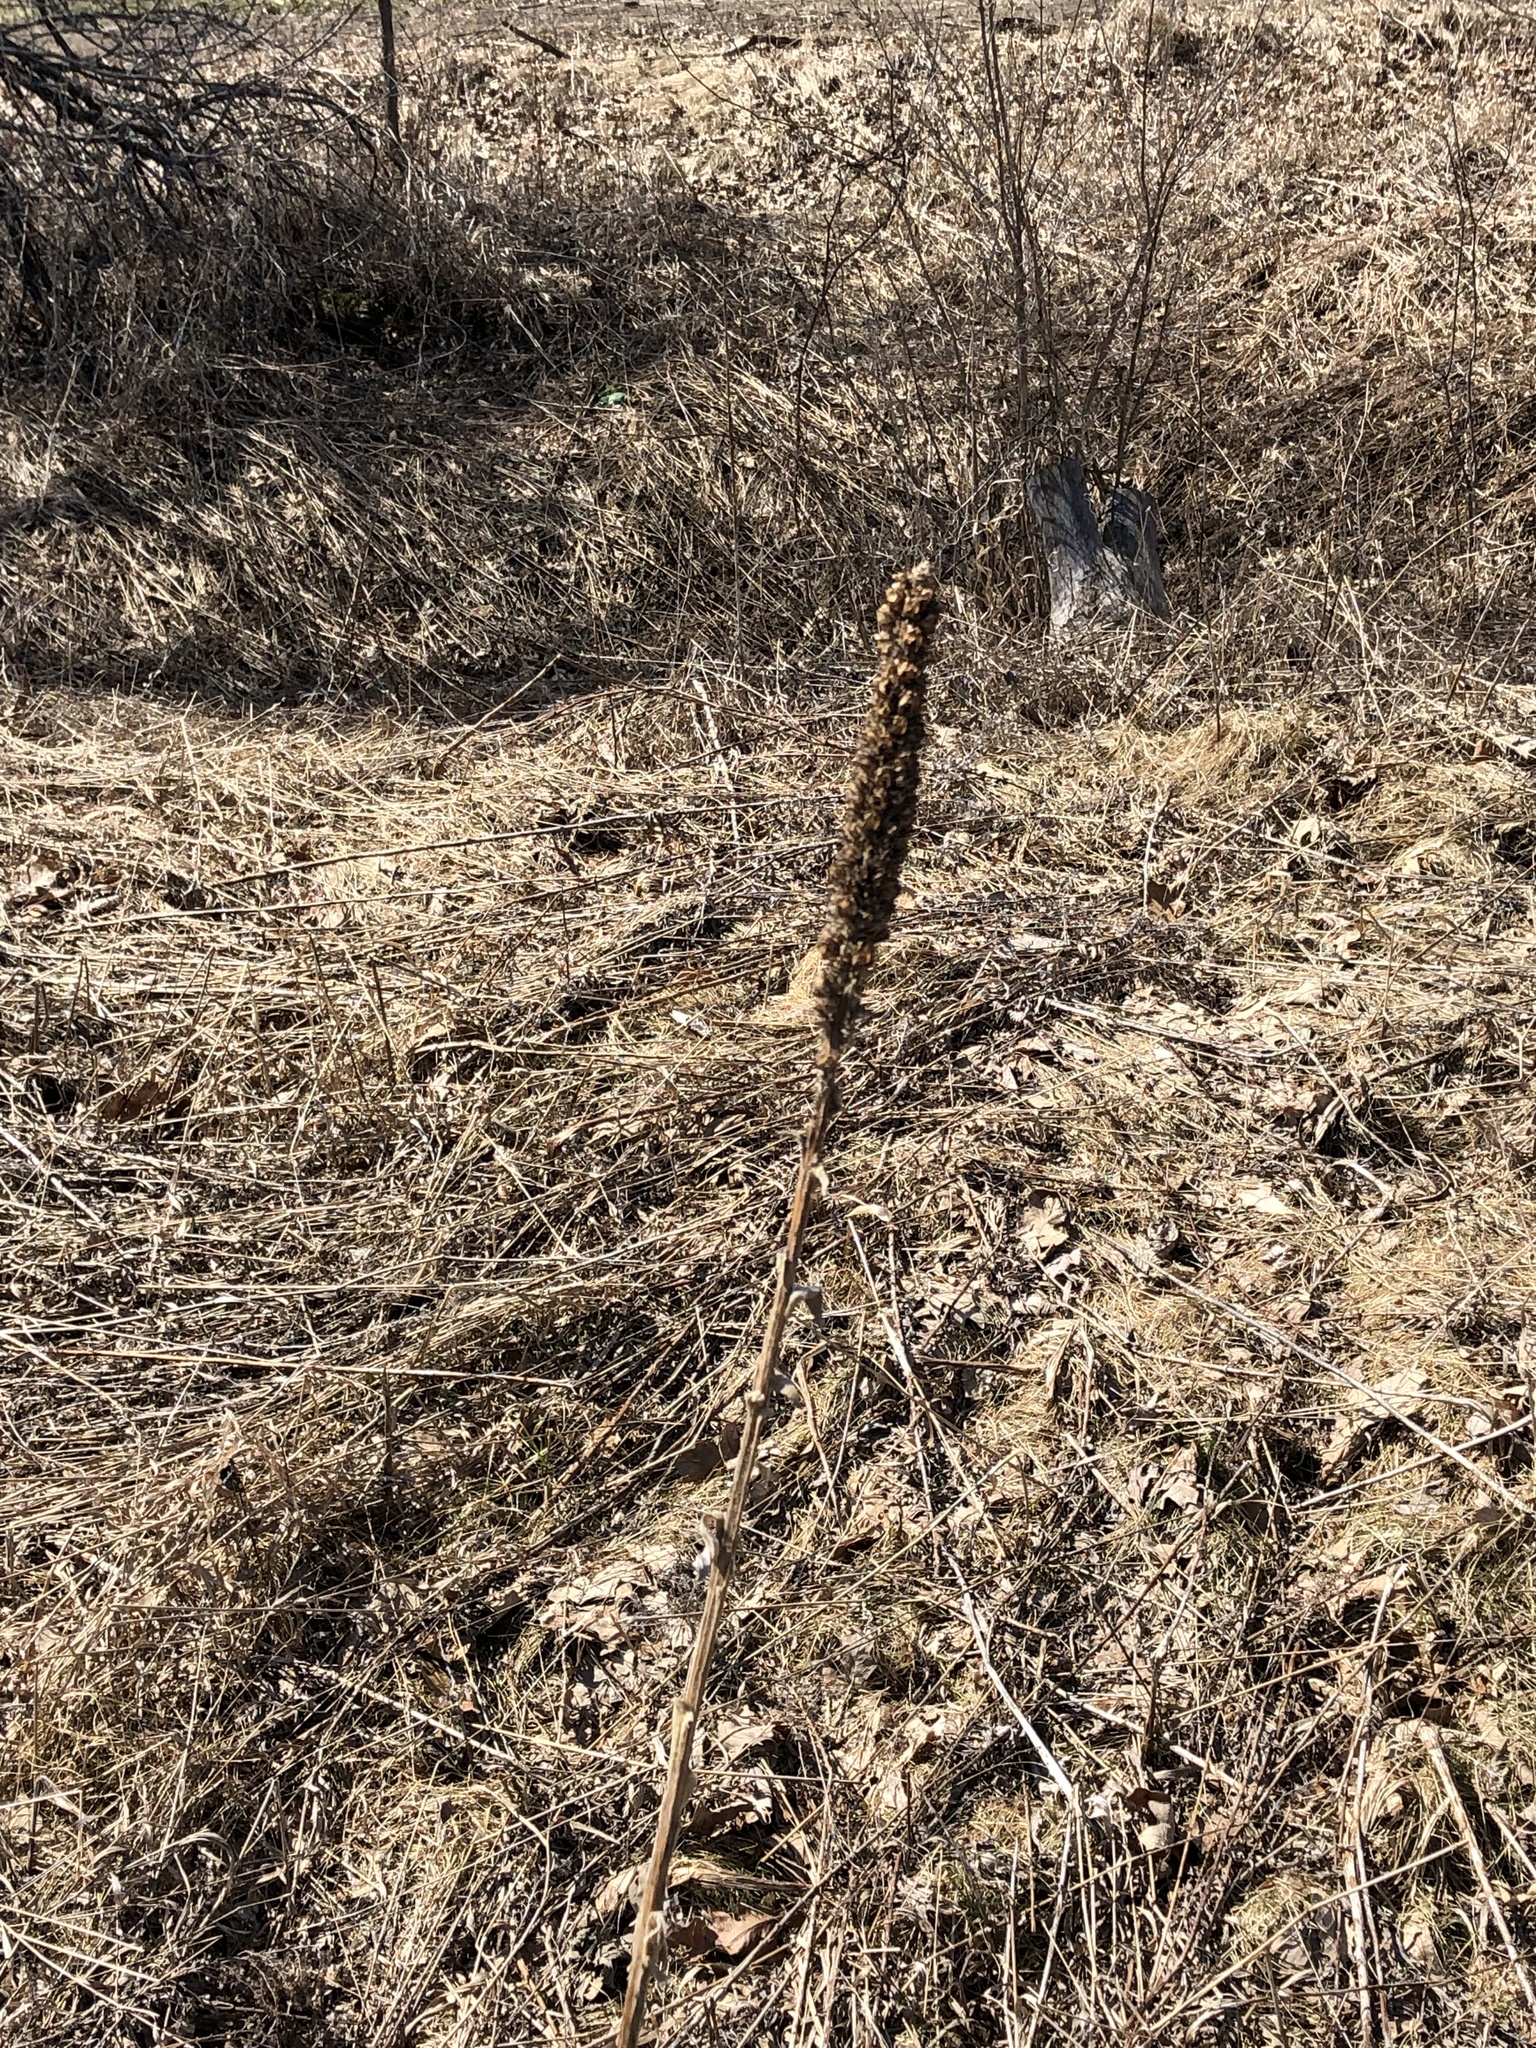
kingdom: Plantae
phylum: Tracheophyta
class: Magnoliopsida
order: Lamiales
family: Scrophulariaceae
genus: Verbascum
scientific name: Verbascum thapsus
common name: Common mullein
